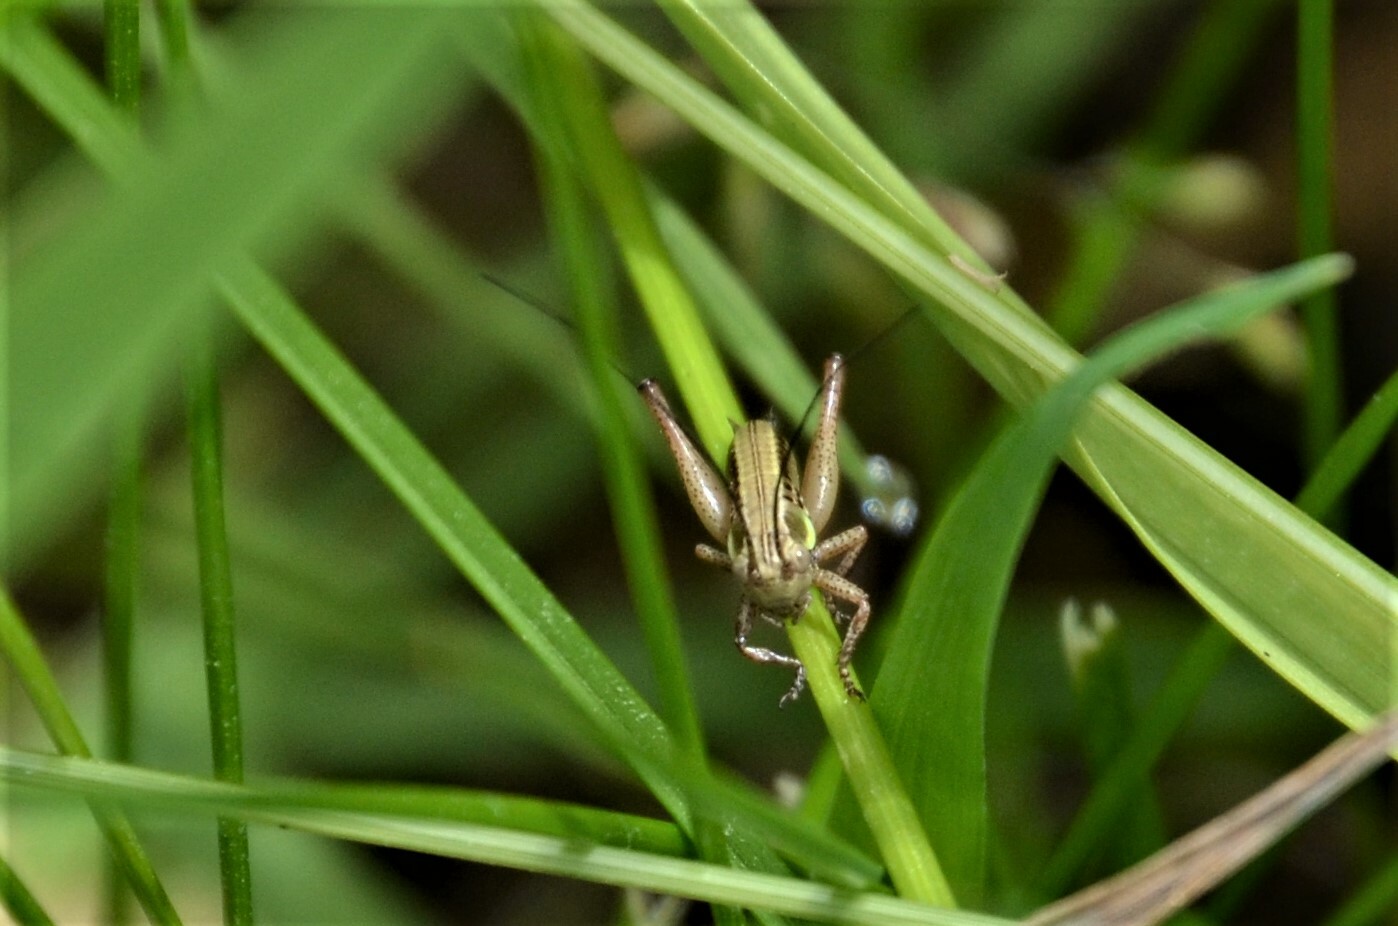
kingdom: Animalia
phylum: Arthropoda
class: Insecta
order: Orthoptera
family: Tettigoniidae
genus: Roeseliana
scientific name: Roeseliana roeselii
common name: Roesel's bush cricket
